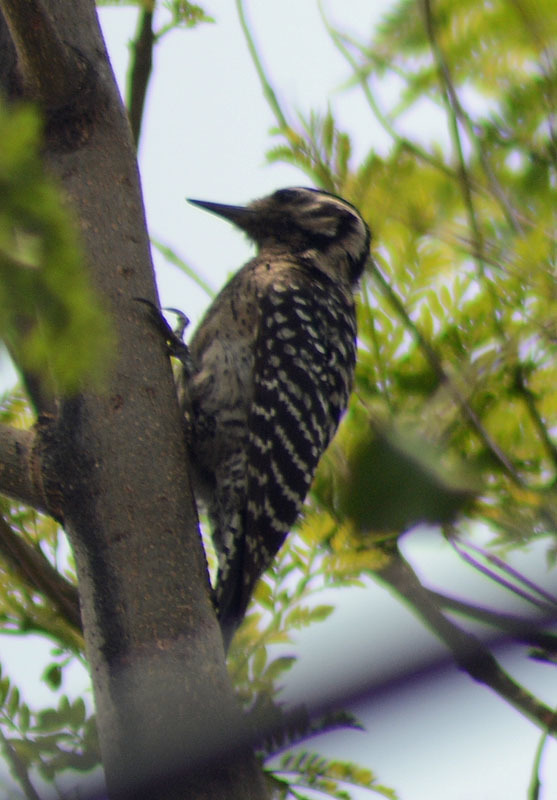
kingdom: Animalia
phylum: Chordata
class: Aves
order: Piciformes
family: Picidae
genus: Dryobates
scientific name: Dryobates scalaris
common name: Ladder-backed woodpecker
